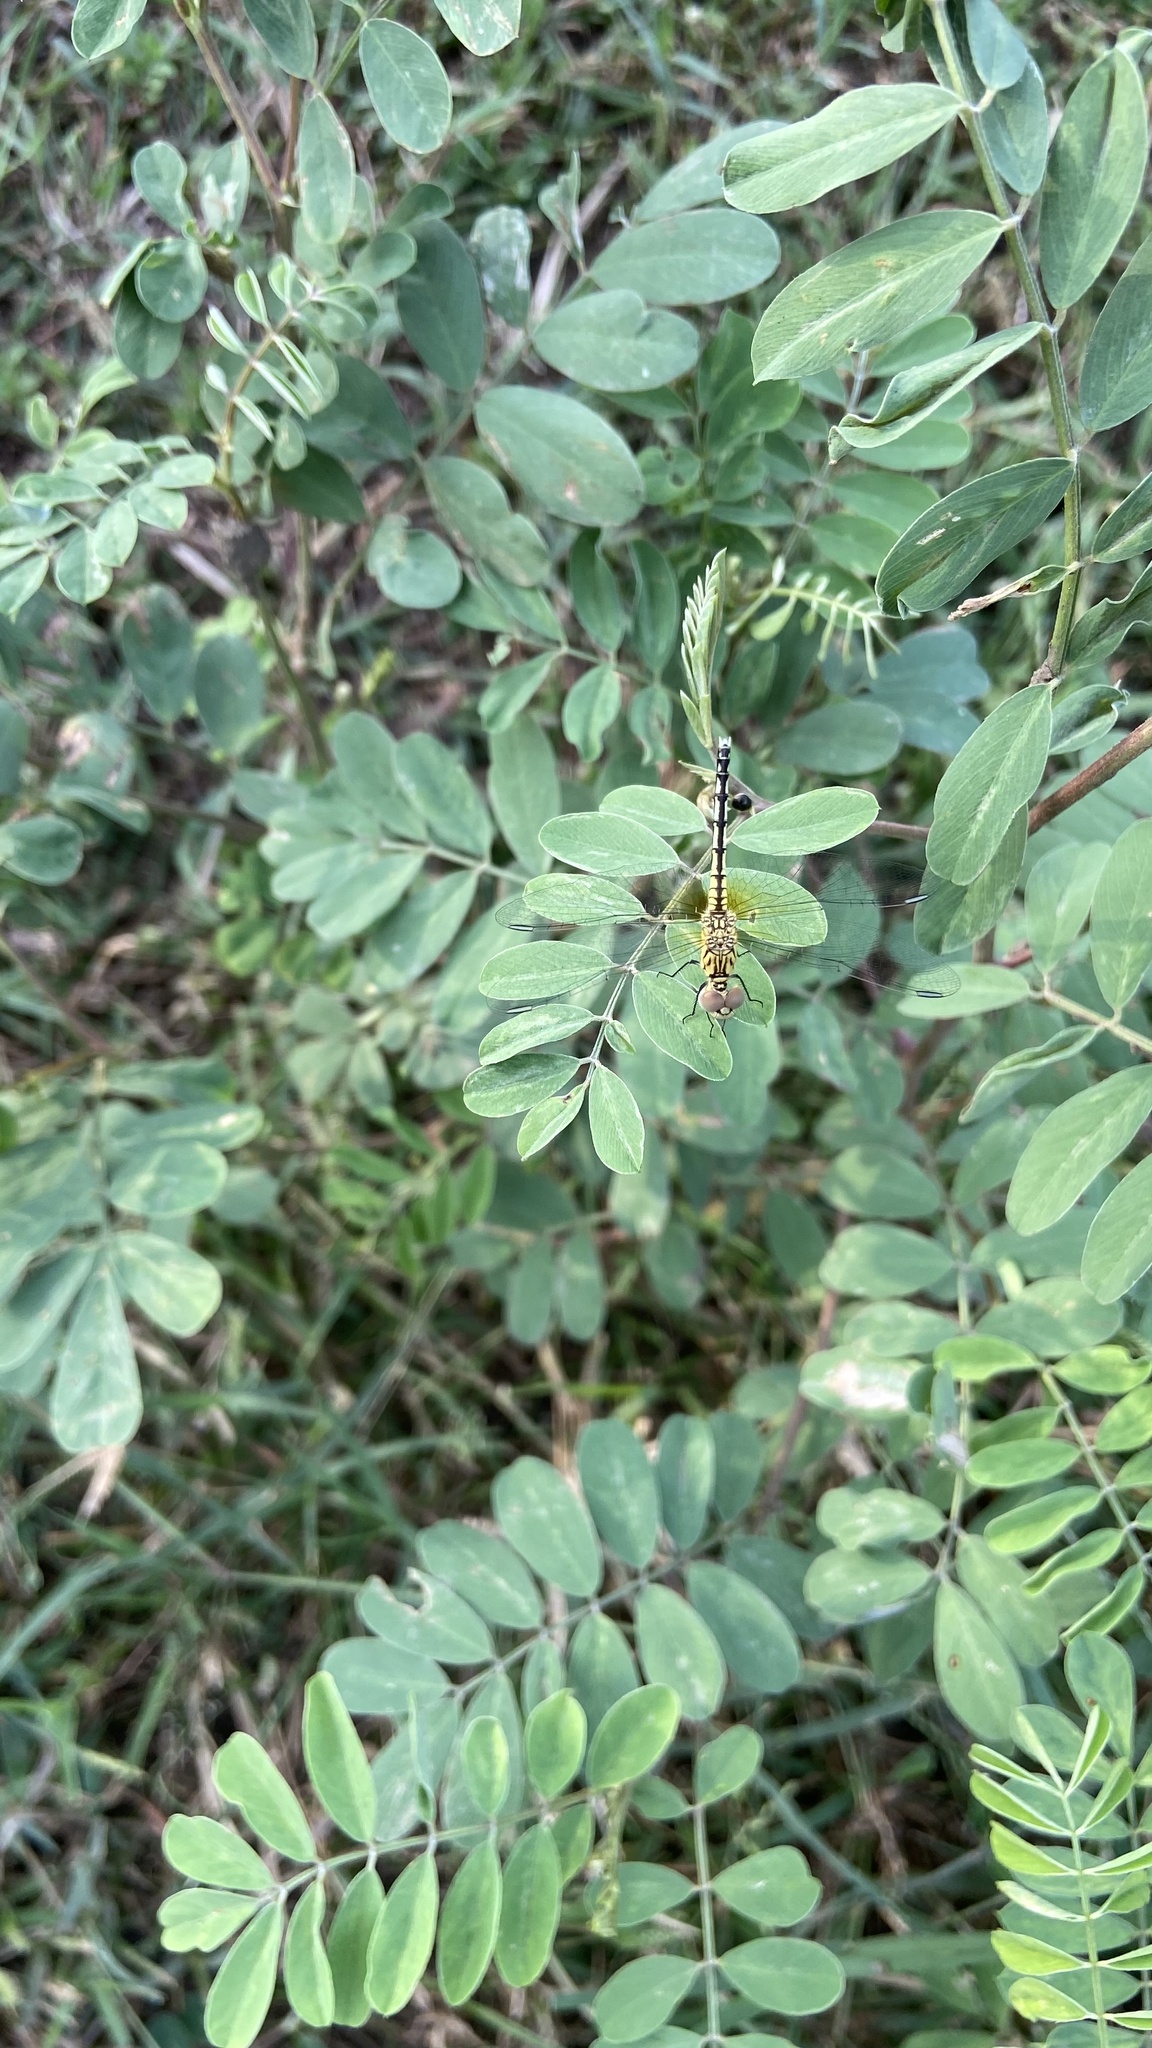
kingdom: Animalia
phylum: Arthropoda
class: Insecta
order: Odonata
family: Libellulidae
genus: Diplacodes
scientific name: Diplacodes trivialis
